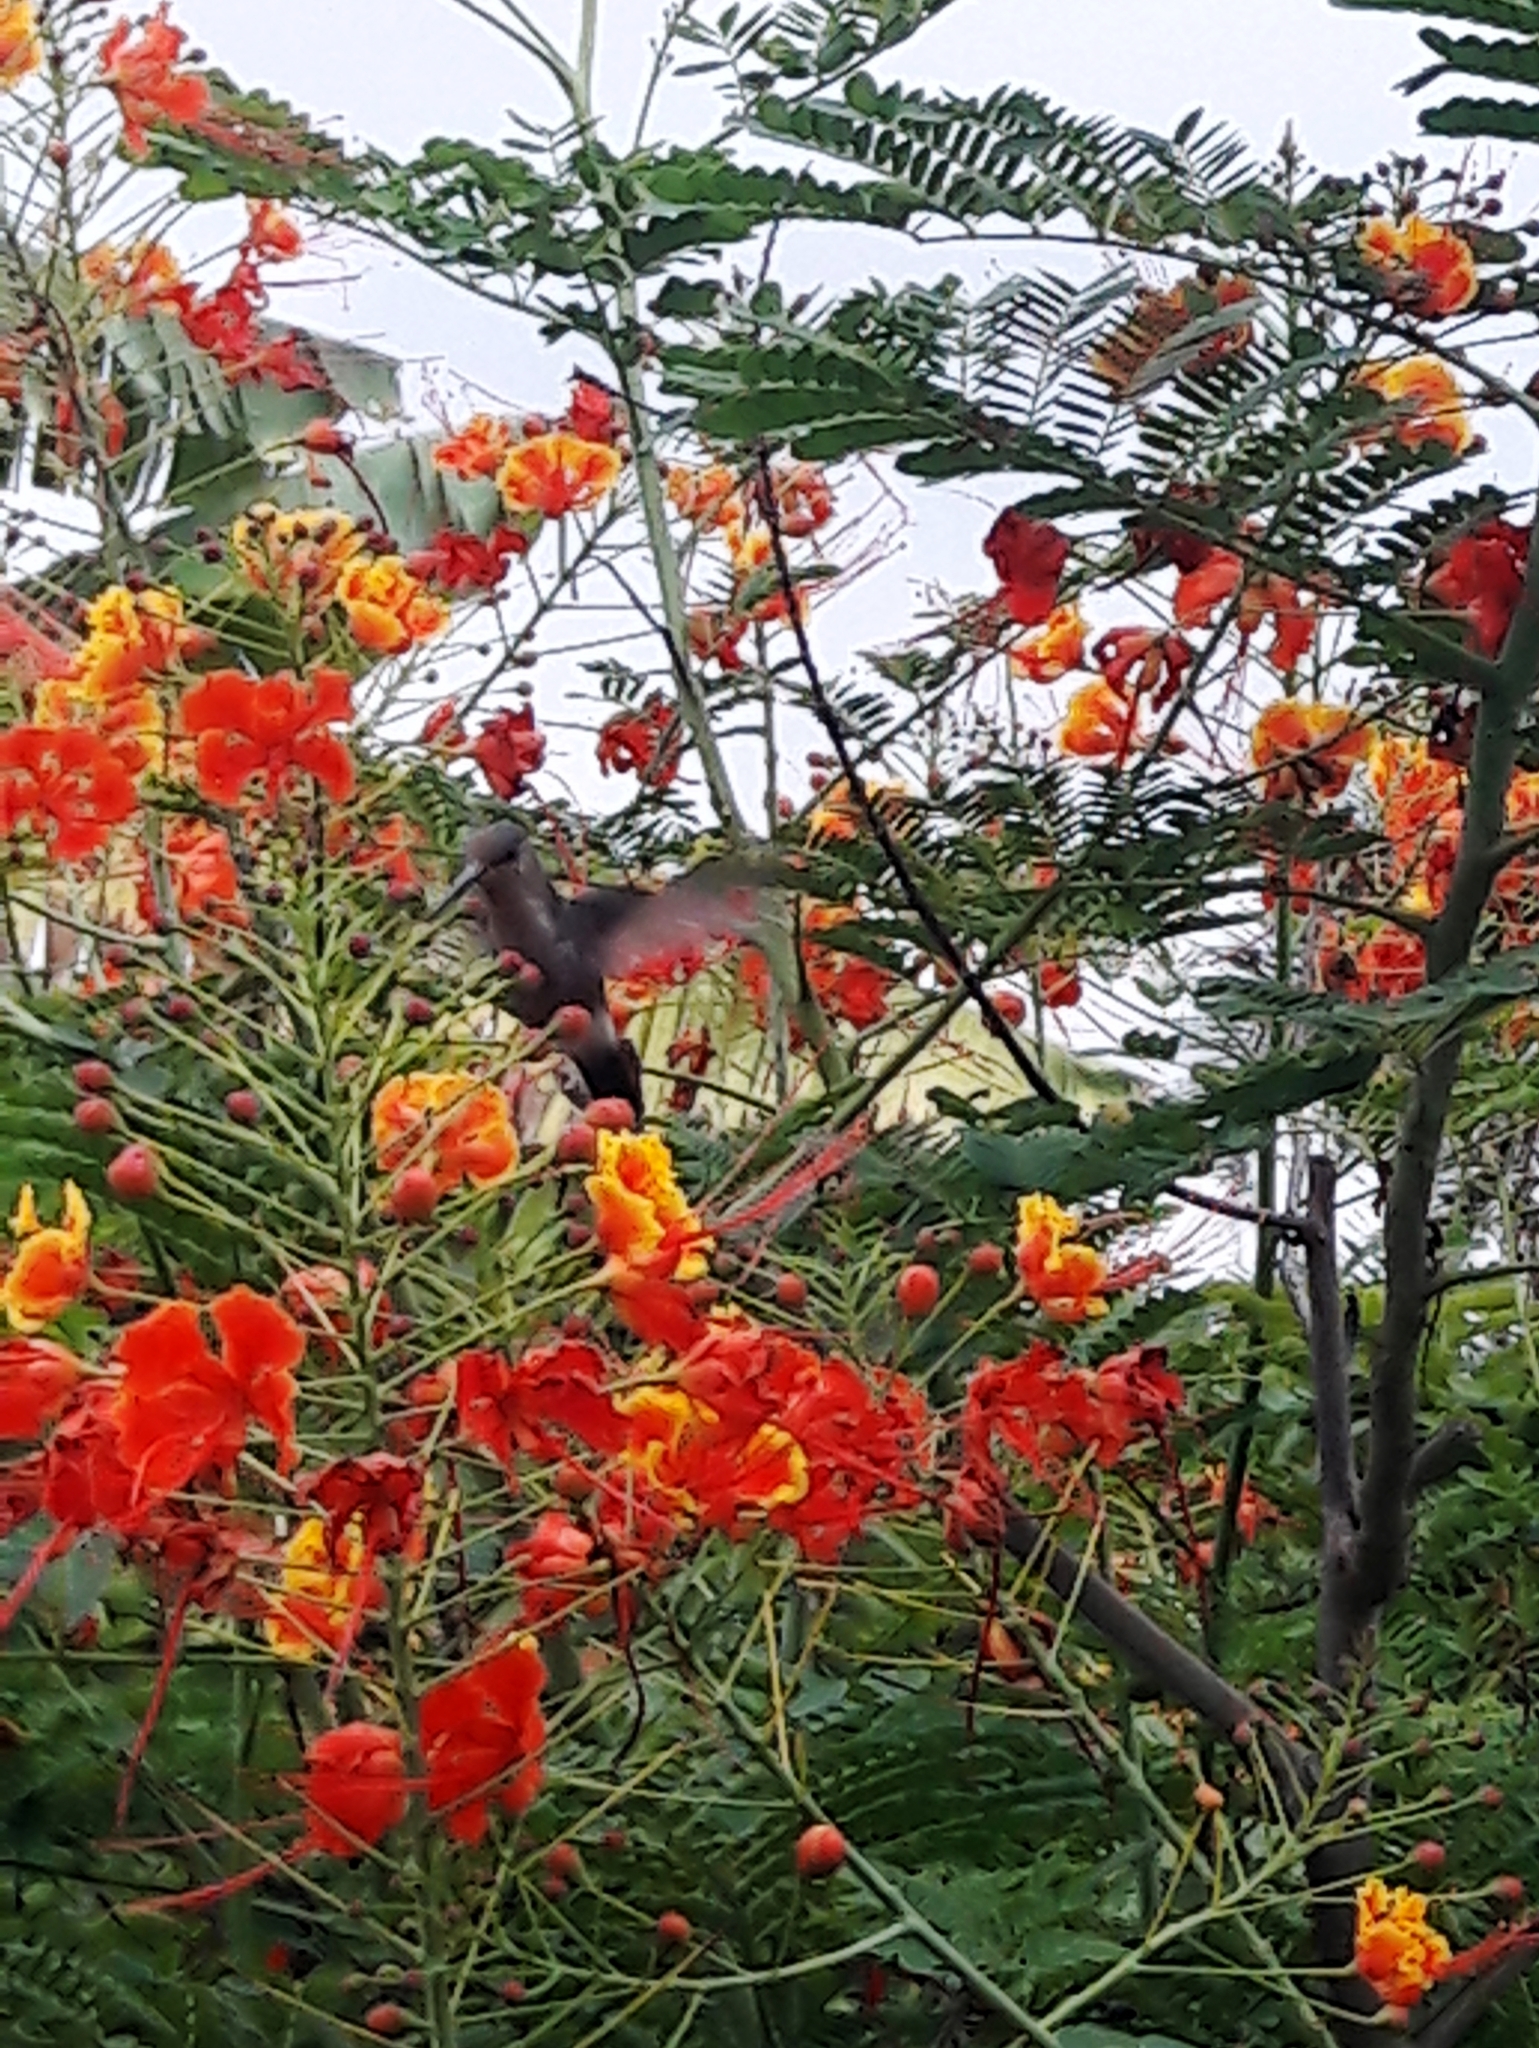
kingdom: Animalia
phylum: Chordata
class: Aves
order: Apodiformes
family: Trochilidae
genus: Thalurania
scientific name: Thalurania furcata
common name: Fork-tailed woodnymph
